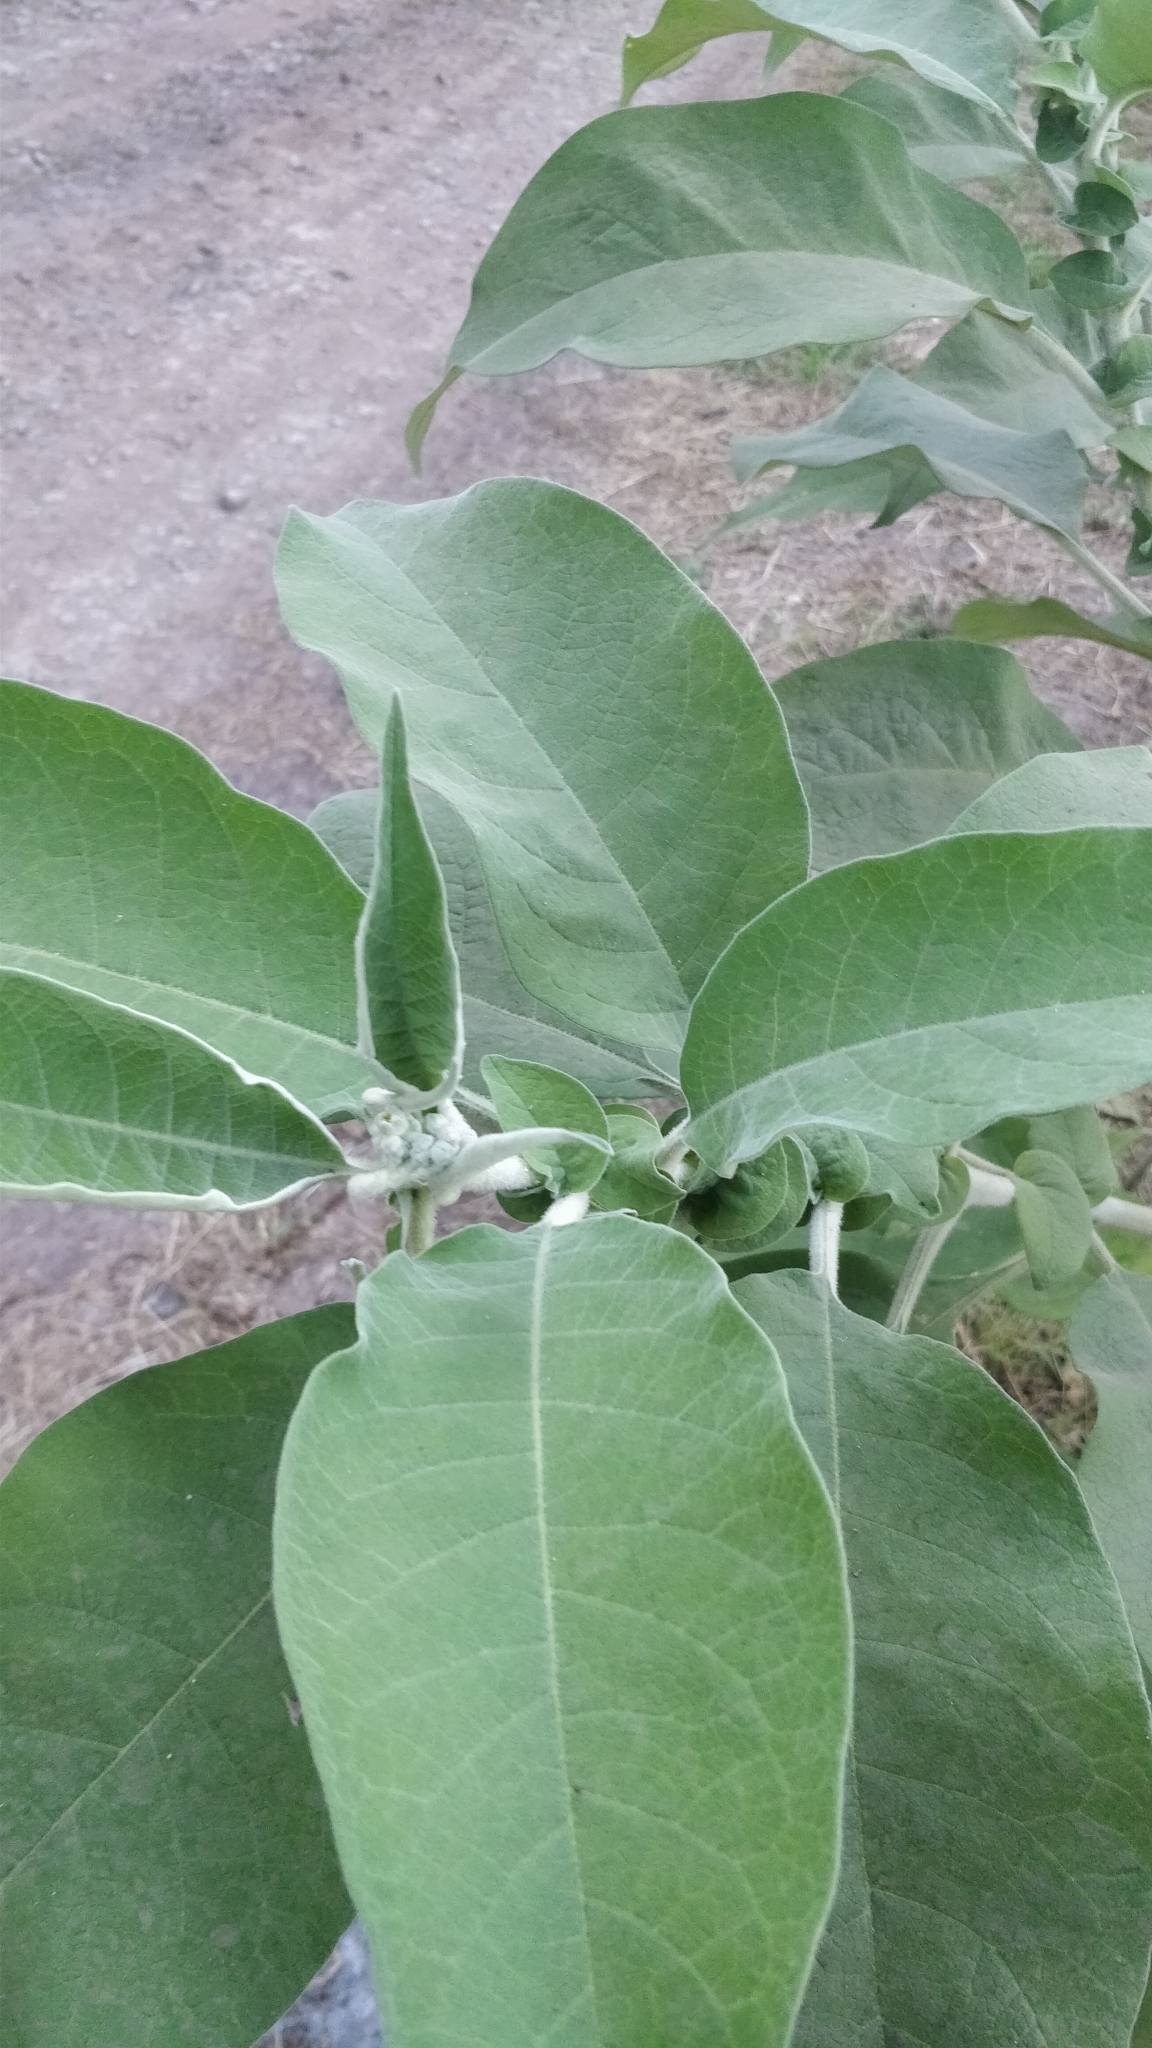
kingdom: Plantae
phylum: Tracheophyta
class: Magnoliopsida
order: Solanales
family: Solanaceae
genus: Solanum
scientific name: Solanum mauritianum
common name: Earleaf nightshade
